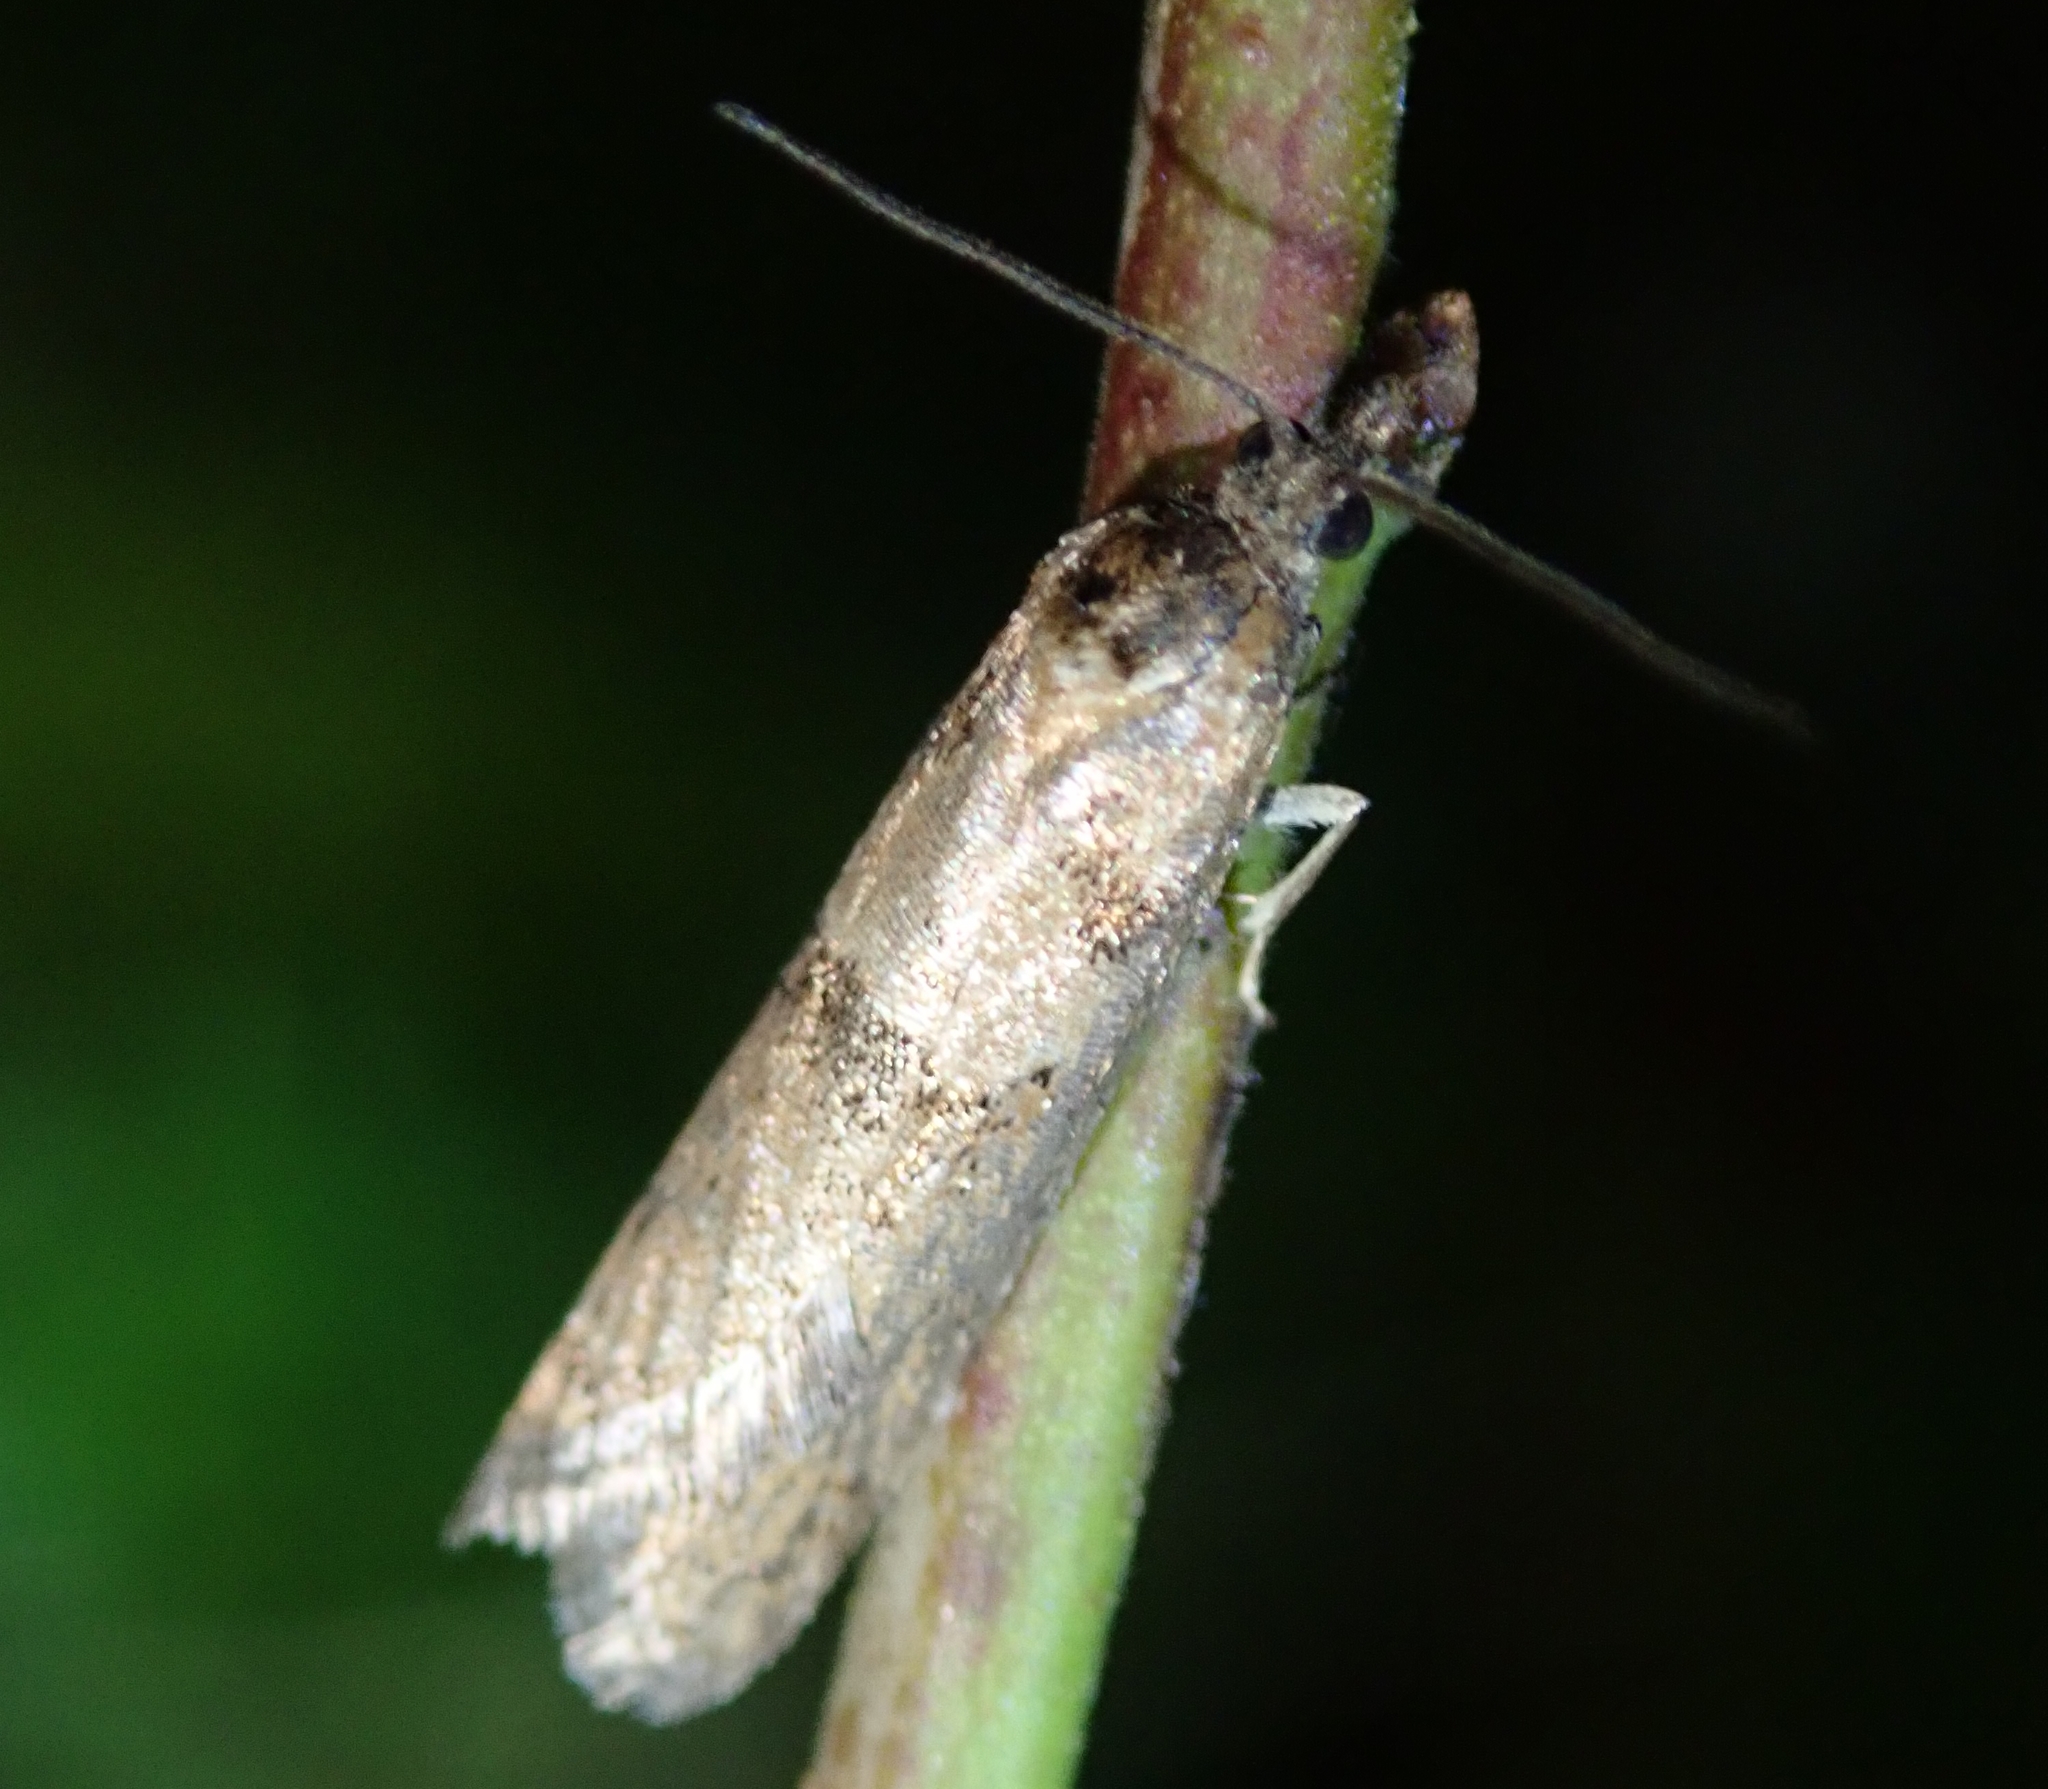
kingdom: Animalia
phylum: Arthropoda
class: Insecta
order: Lepidoptera
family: Tortricidae
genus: Tortricodes
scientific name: Tortricodes alternella
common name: Winter shade
